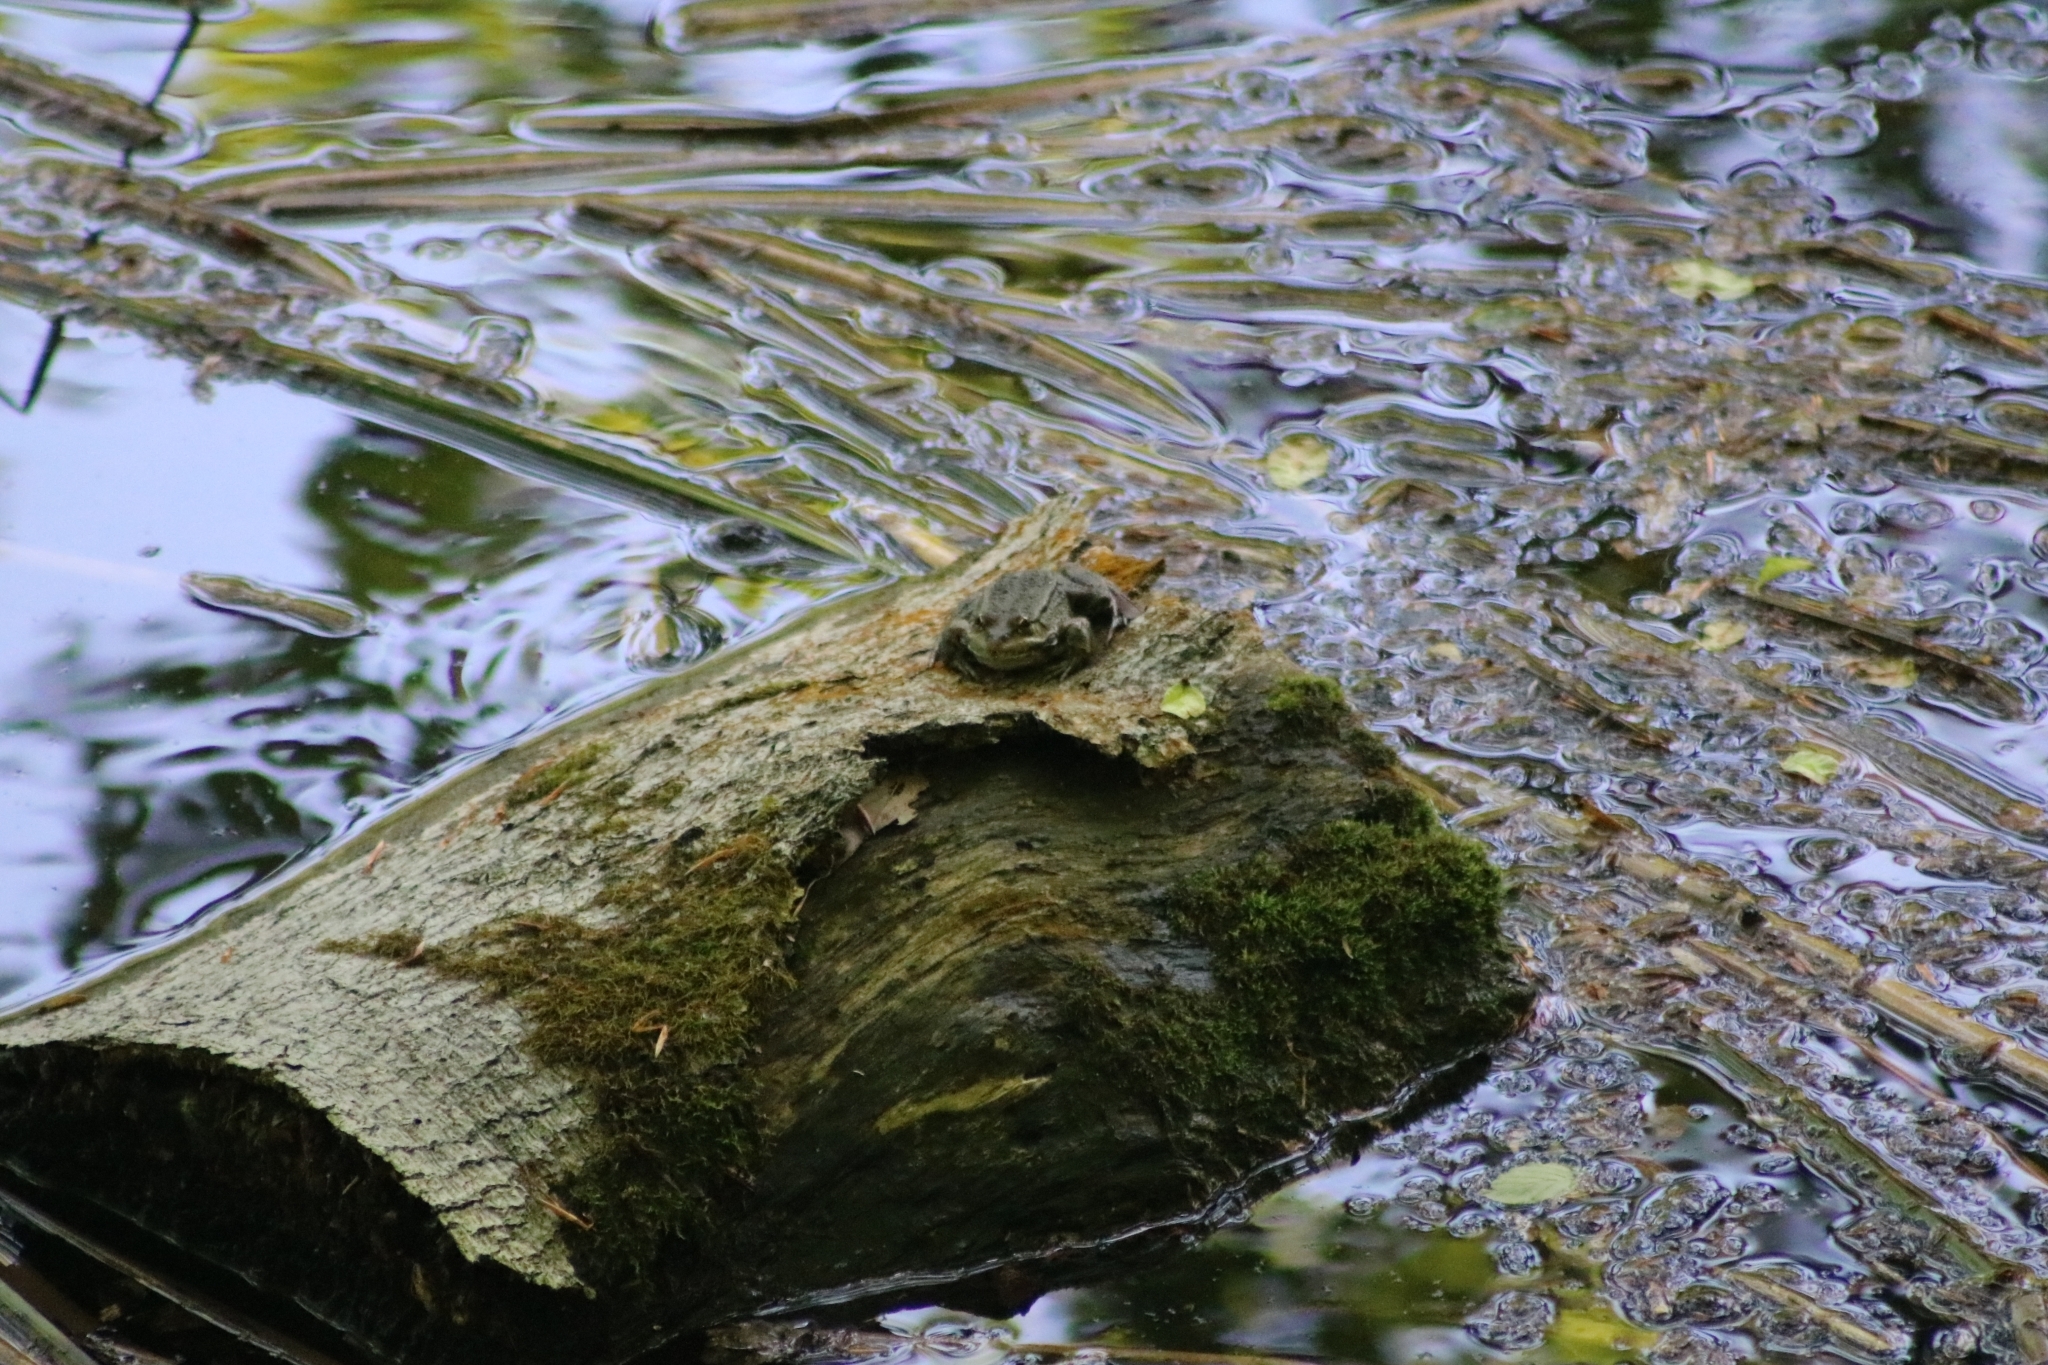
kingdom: Animalia
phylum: Chordata
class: Amphibia
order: Anura
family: Ranidae
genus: Pelophylax
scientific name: Pelophylax ridibundus
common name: Marsh frog
